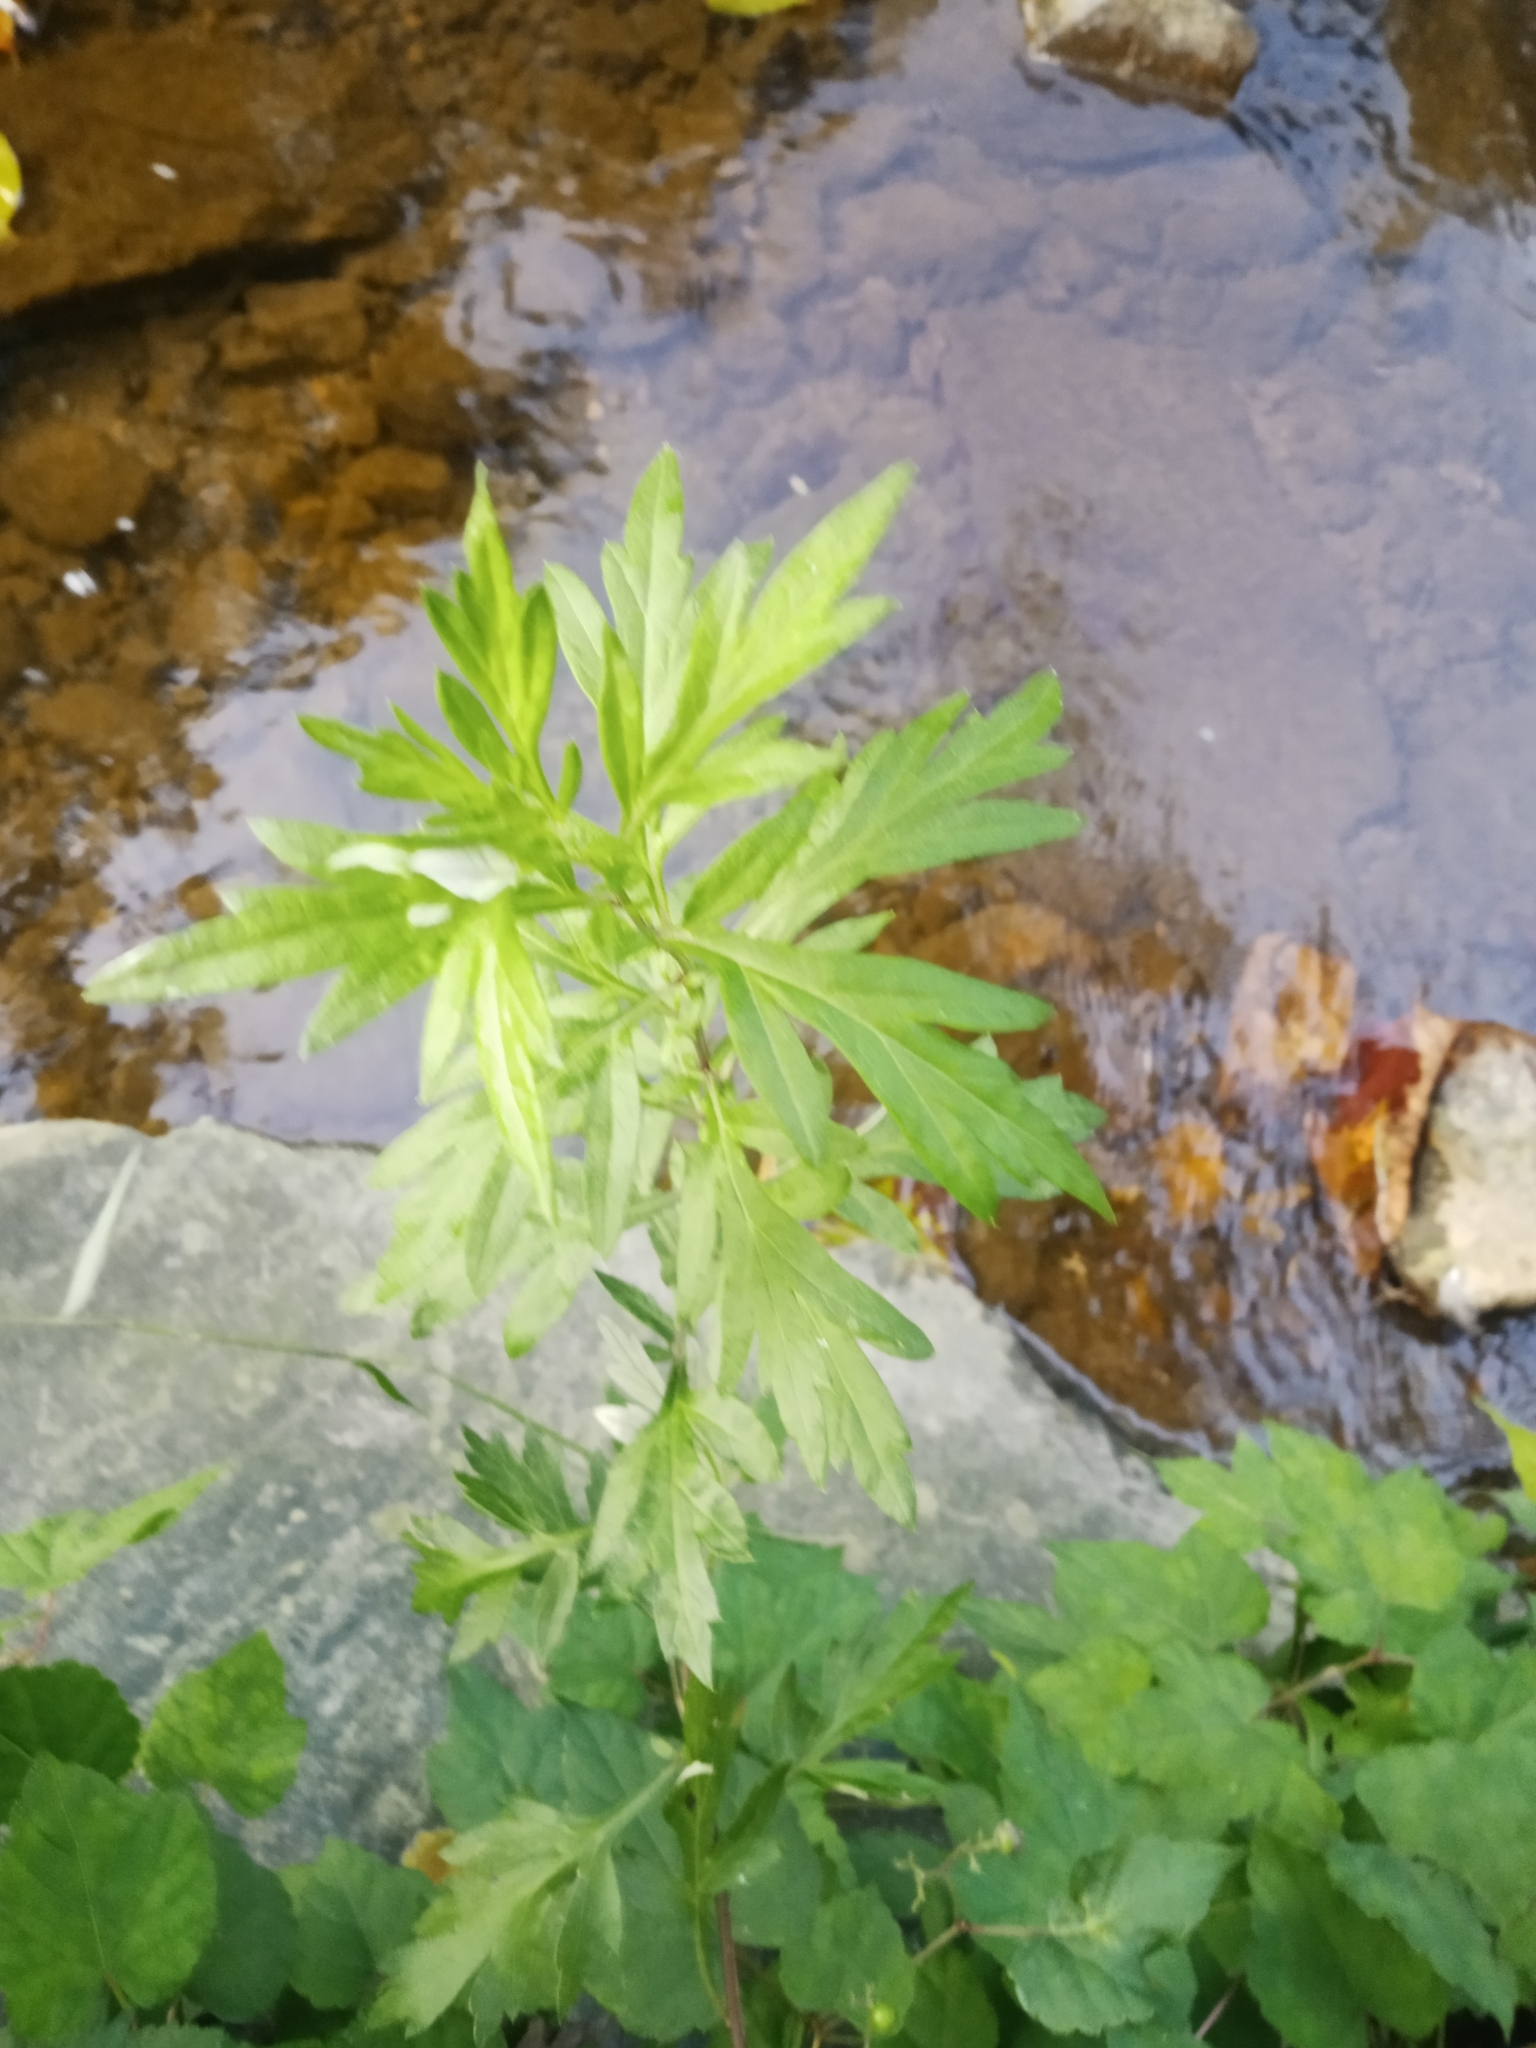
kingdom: Plantae
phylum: Tracheophyta
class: Magnoliopsida
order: Asterales
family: Asteraceae
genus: Artemisia
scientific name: Artemisia vulgaris
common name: Mugwort
